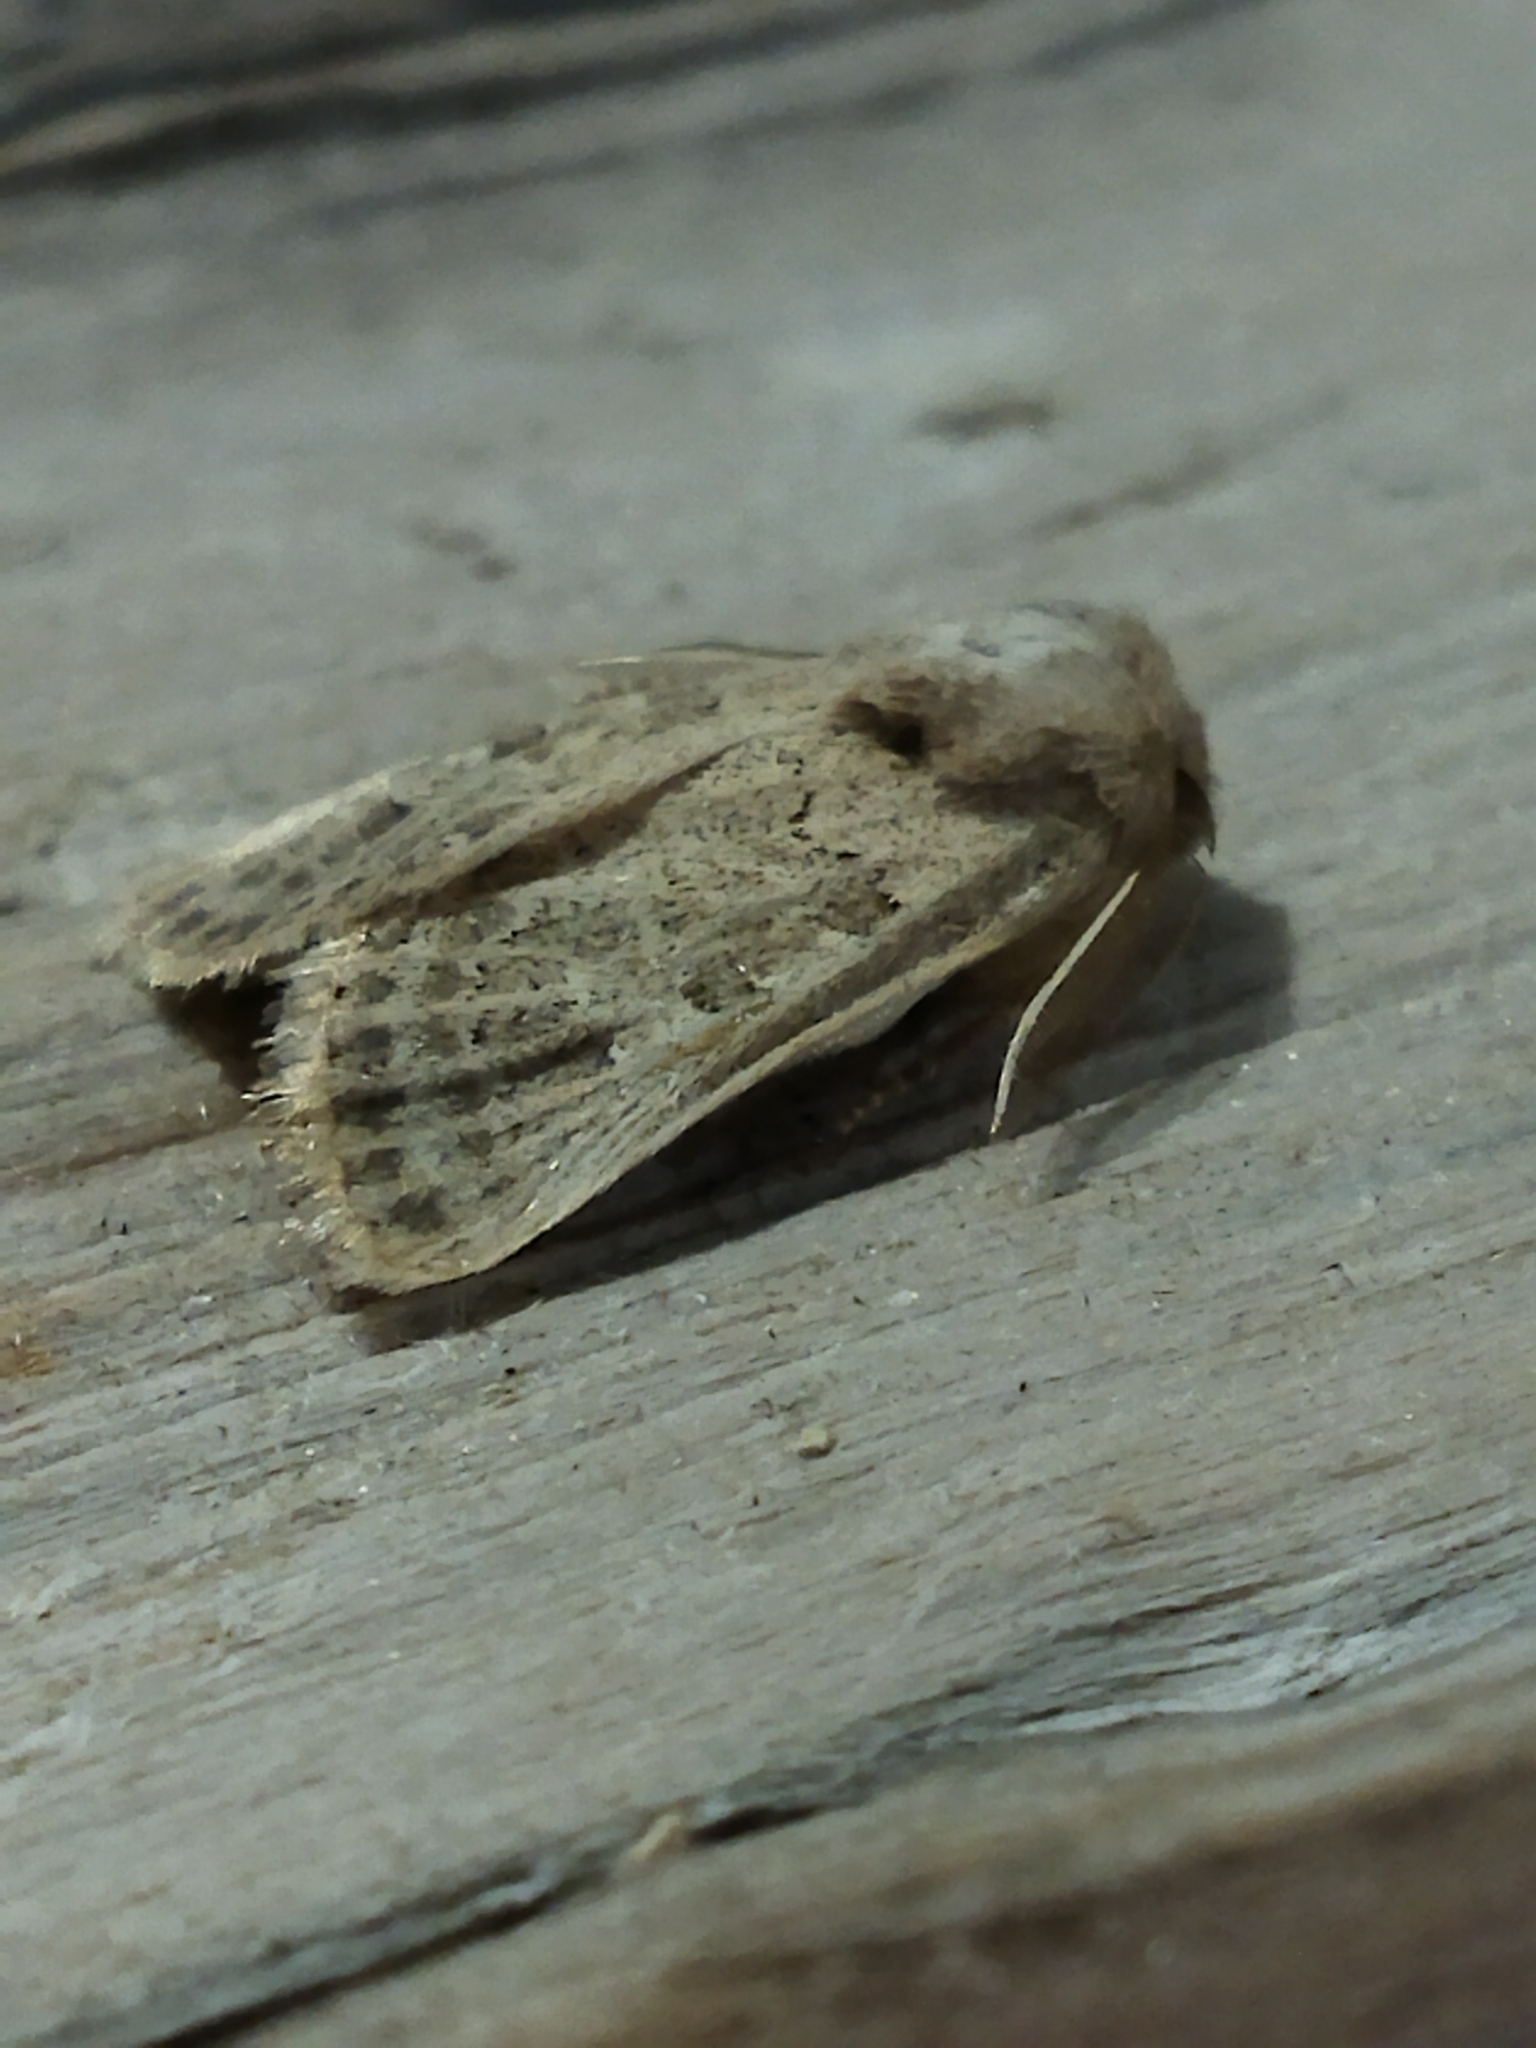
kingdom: Animalia
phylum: Arthropoda
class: Insecta
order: Lepidoptera
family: Noctuidae
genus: Episema
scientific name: Episema lederi
